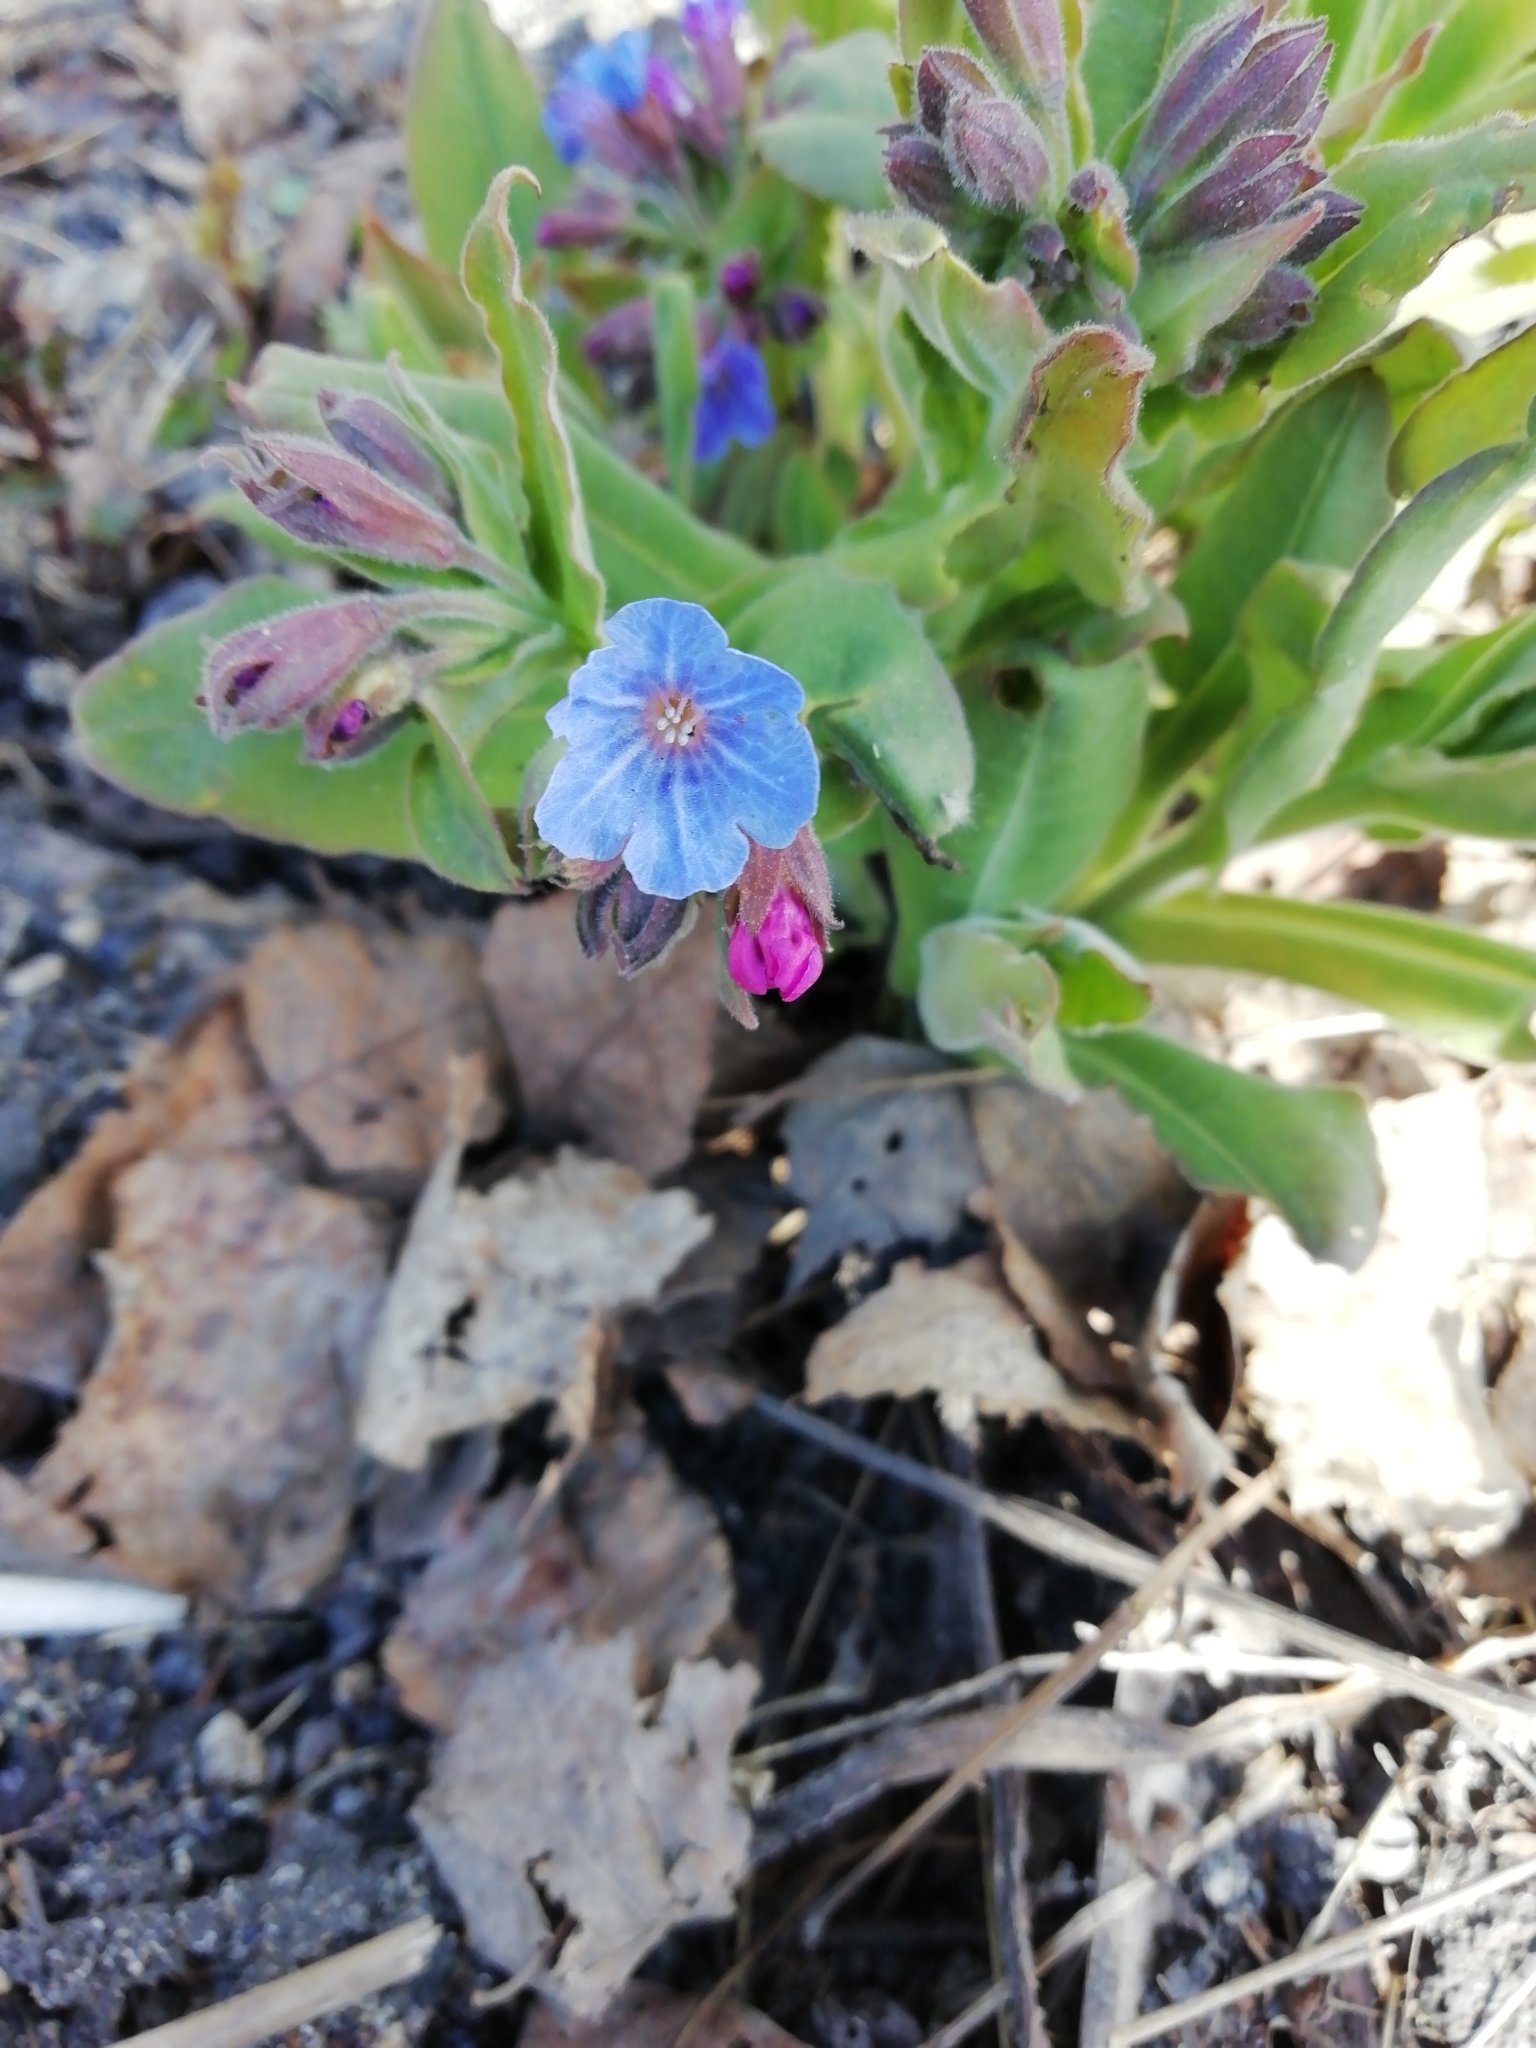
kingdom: Plantae
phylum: Tracheophyta
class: Magnoliopsida
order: Boraginales
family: Boraginaceae
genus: Pulmonaria
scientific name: Pulmonaria mollis
